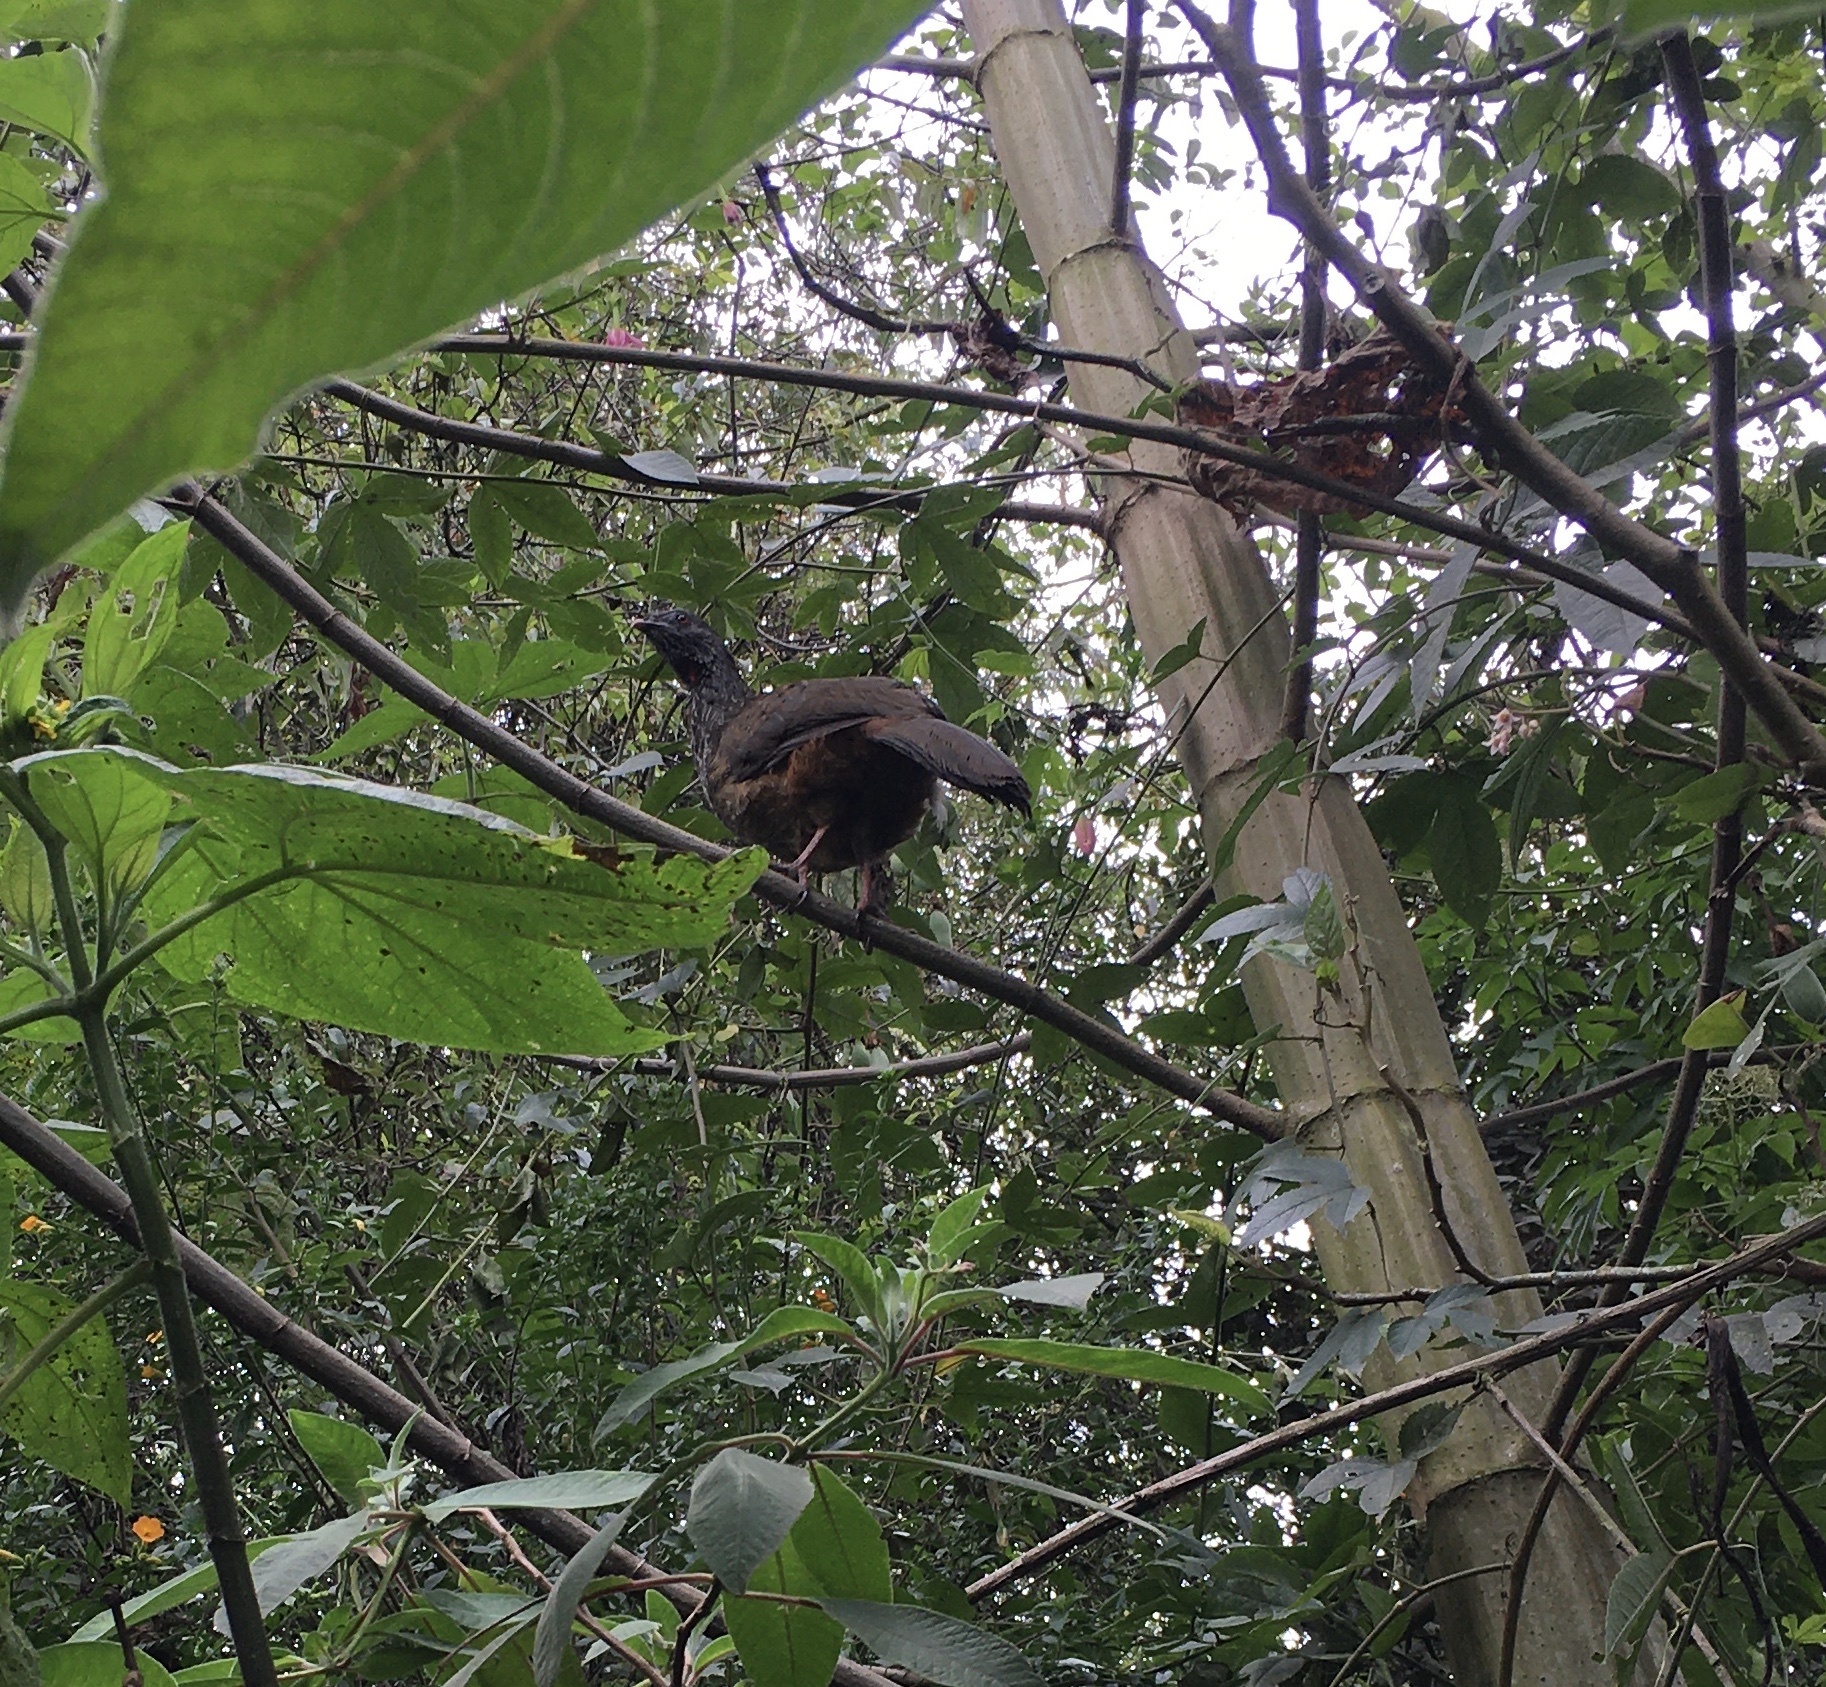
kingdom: Animalia
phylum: Chordata
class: Aves
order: Galliformes
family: Cracidae
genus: Penelope
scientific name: Penelope montagnii
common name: Andean guan
